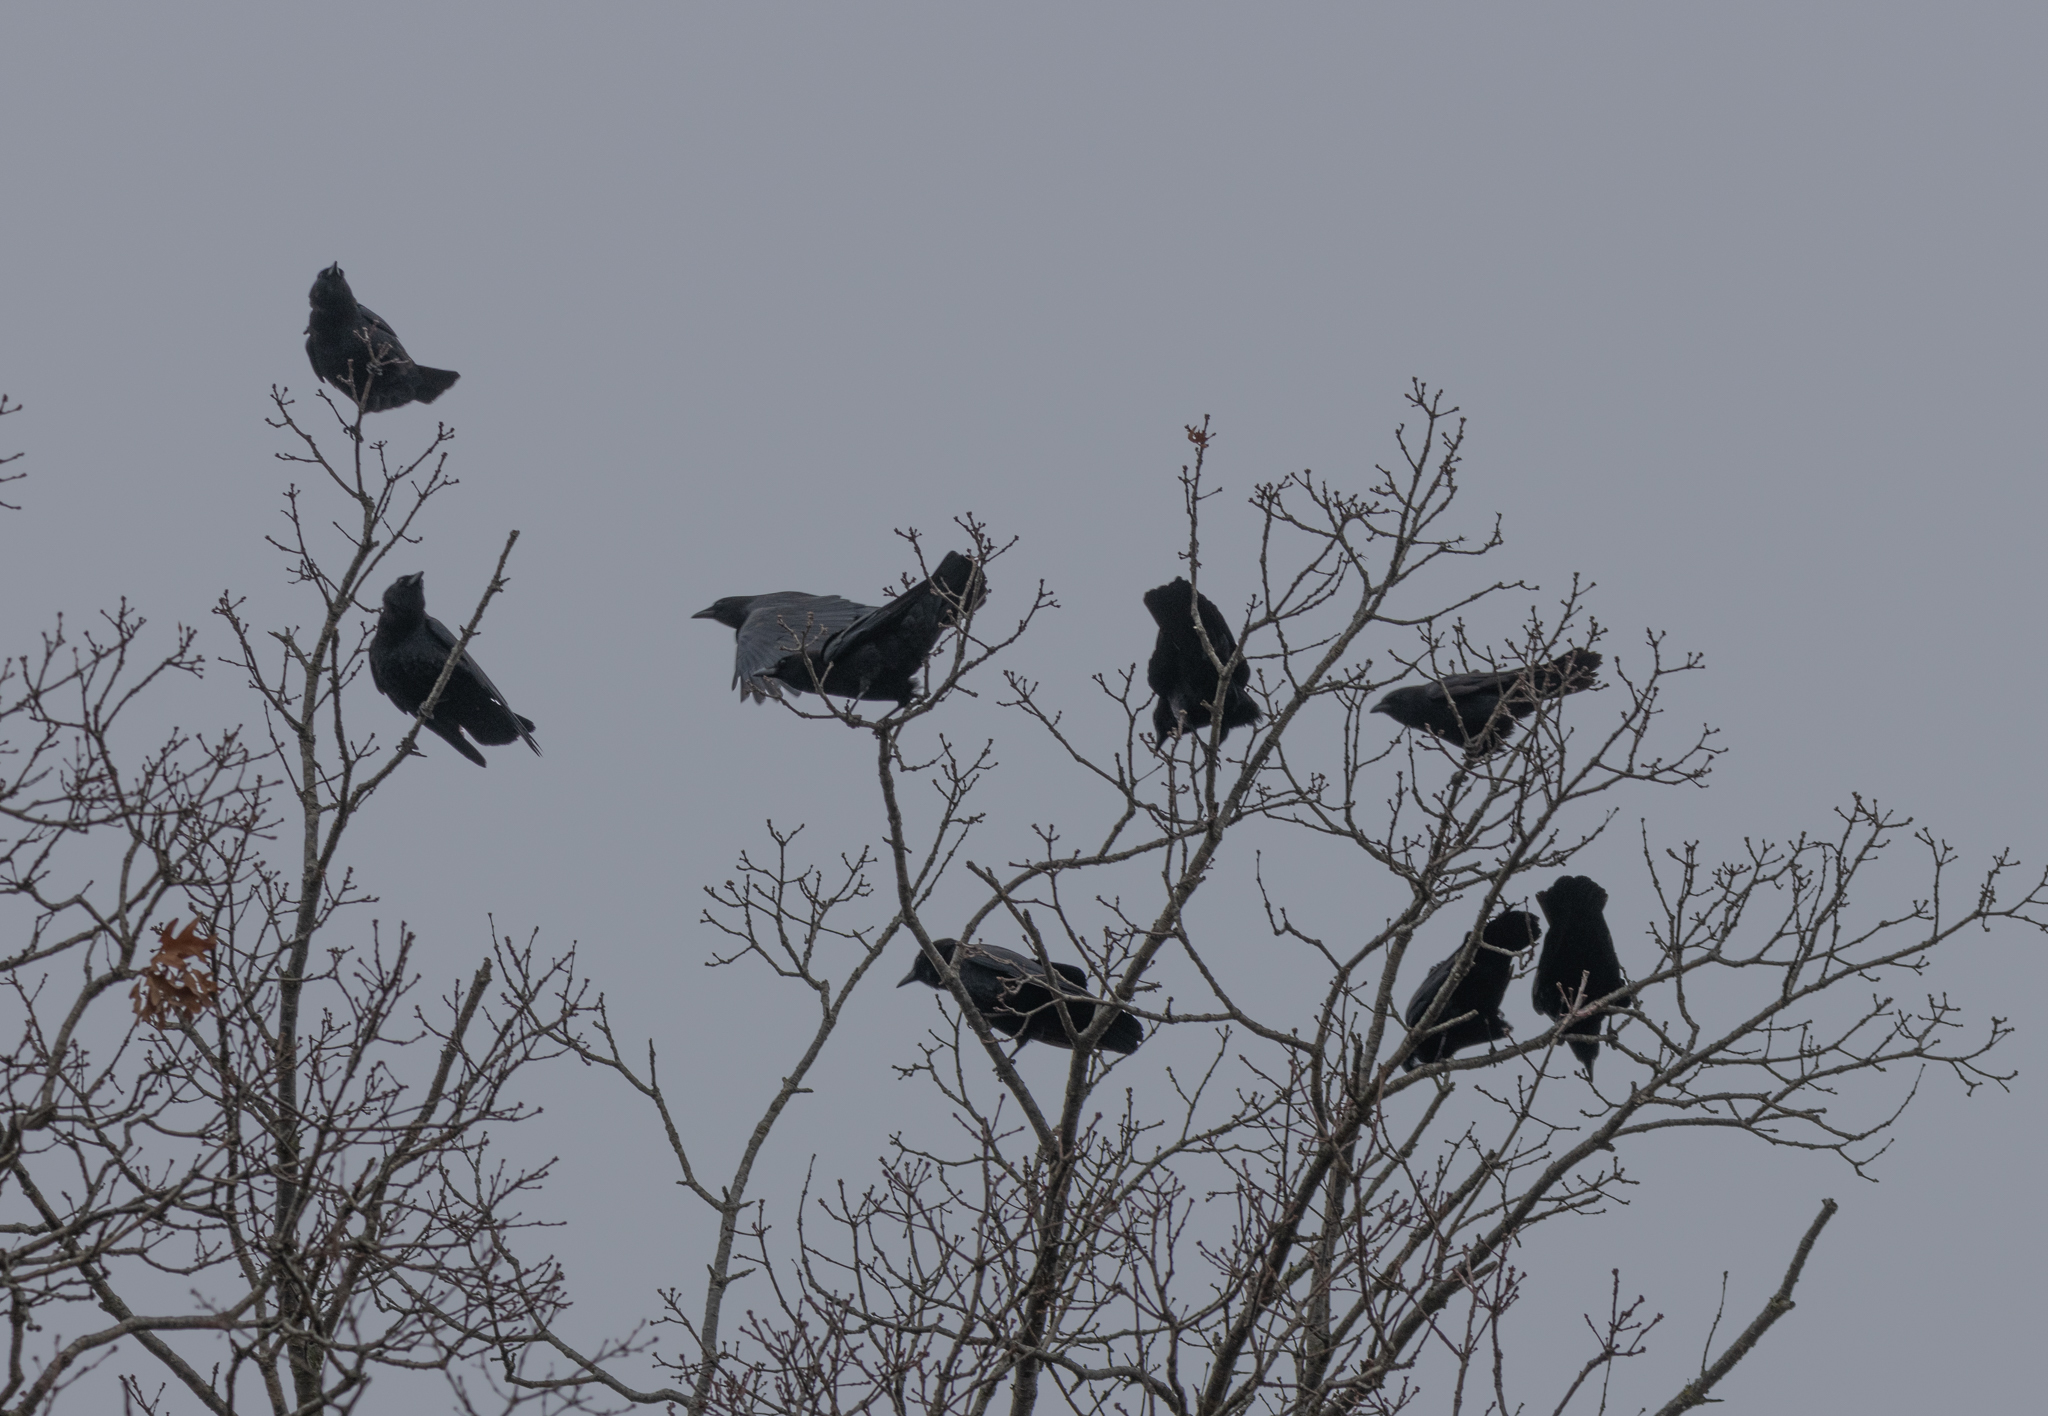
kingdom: Animalia
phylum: Chordata
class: Aves
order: Passeriformes
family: Corvidae
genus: Corvus
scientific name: Corvus brachyrhynchos
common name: American crow
